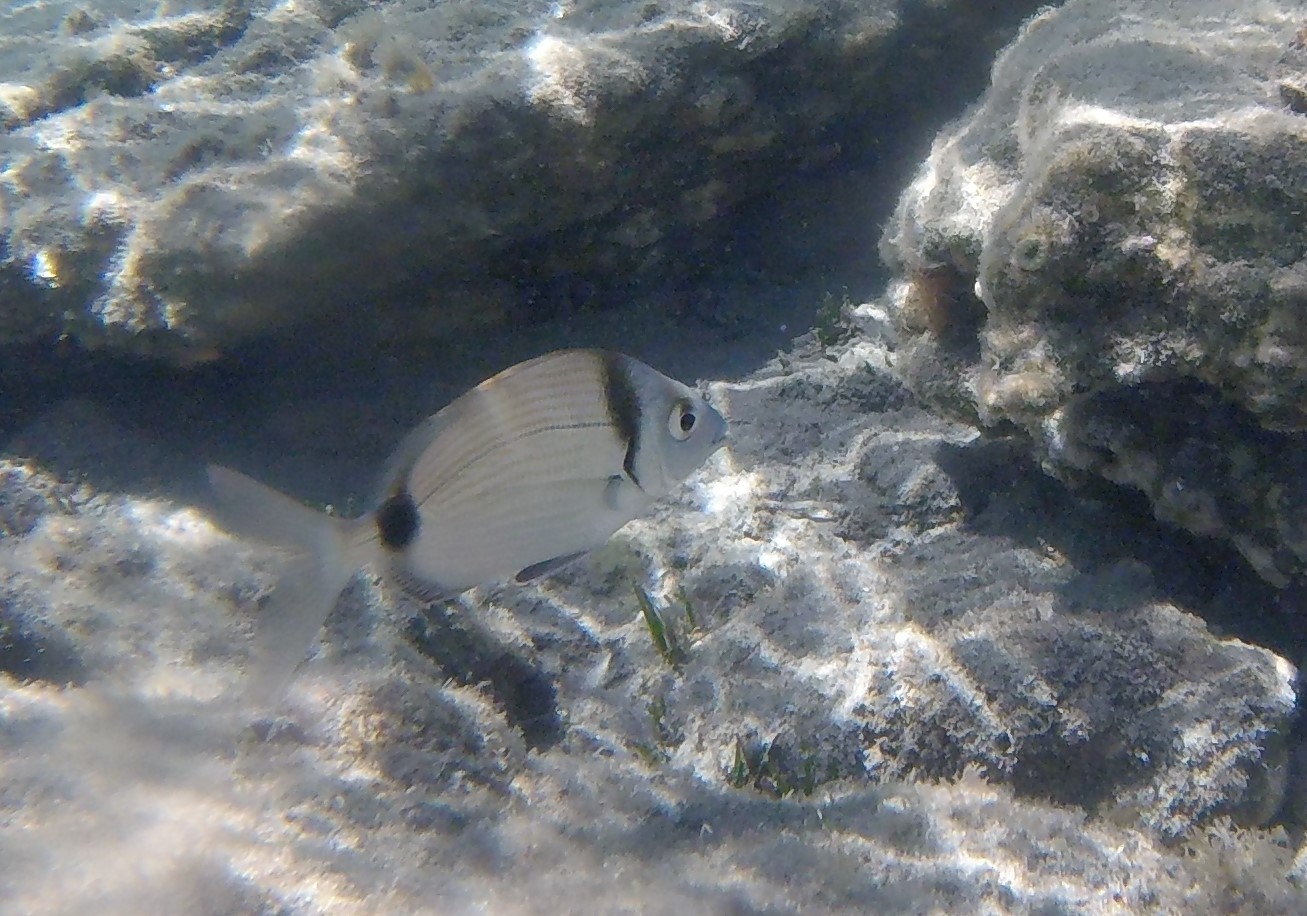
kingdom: Animalia
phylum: Chordata
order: Perciformes
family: Sparidae
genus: Diplodus
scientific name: Diplodus vulgaris
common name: Common two-banded seabream
